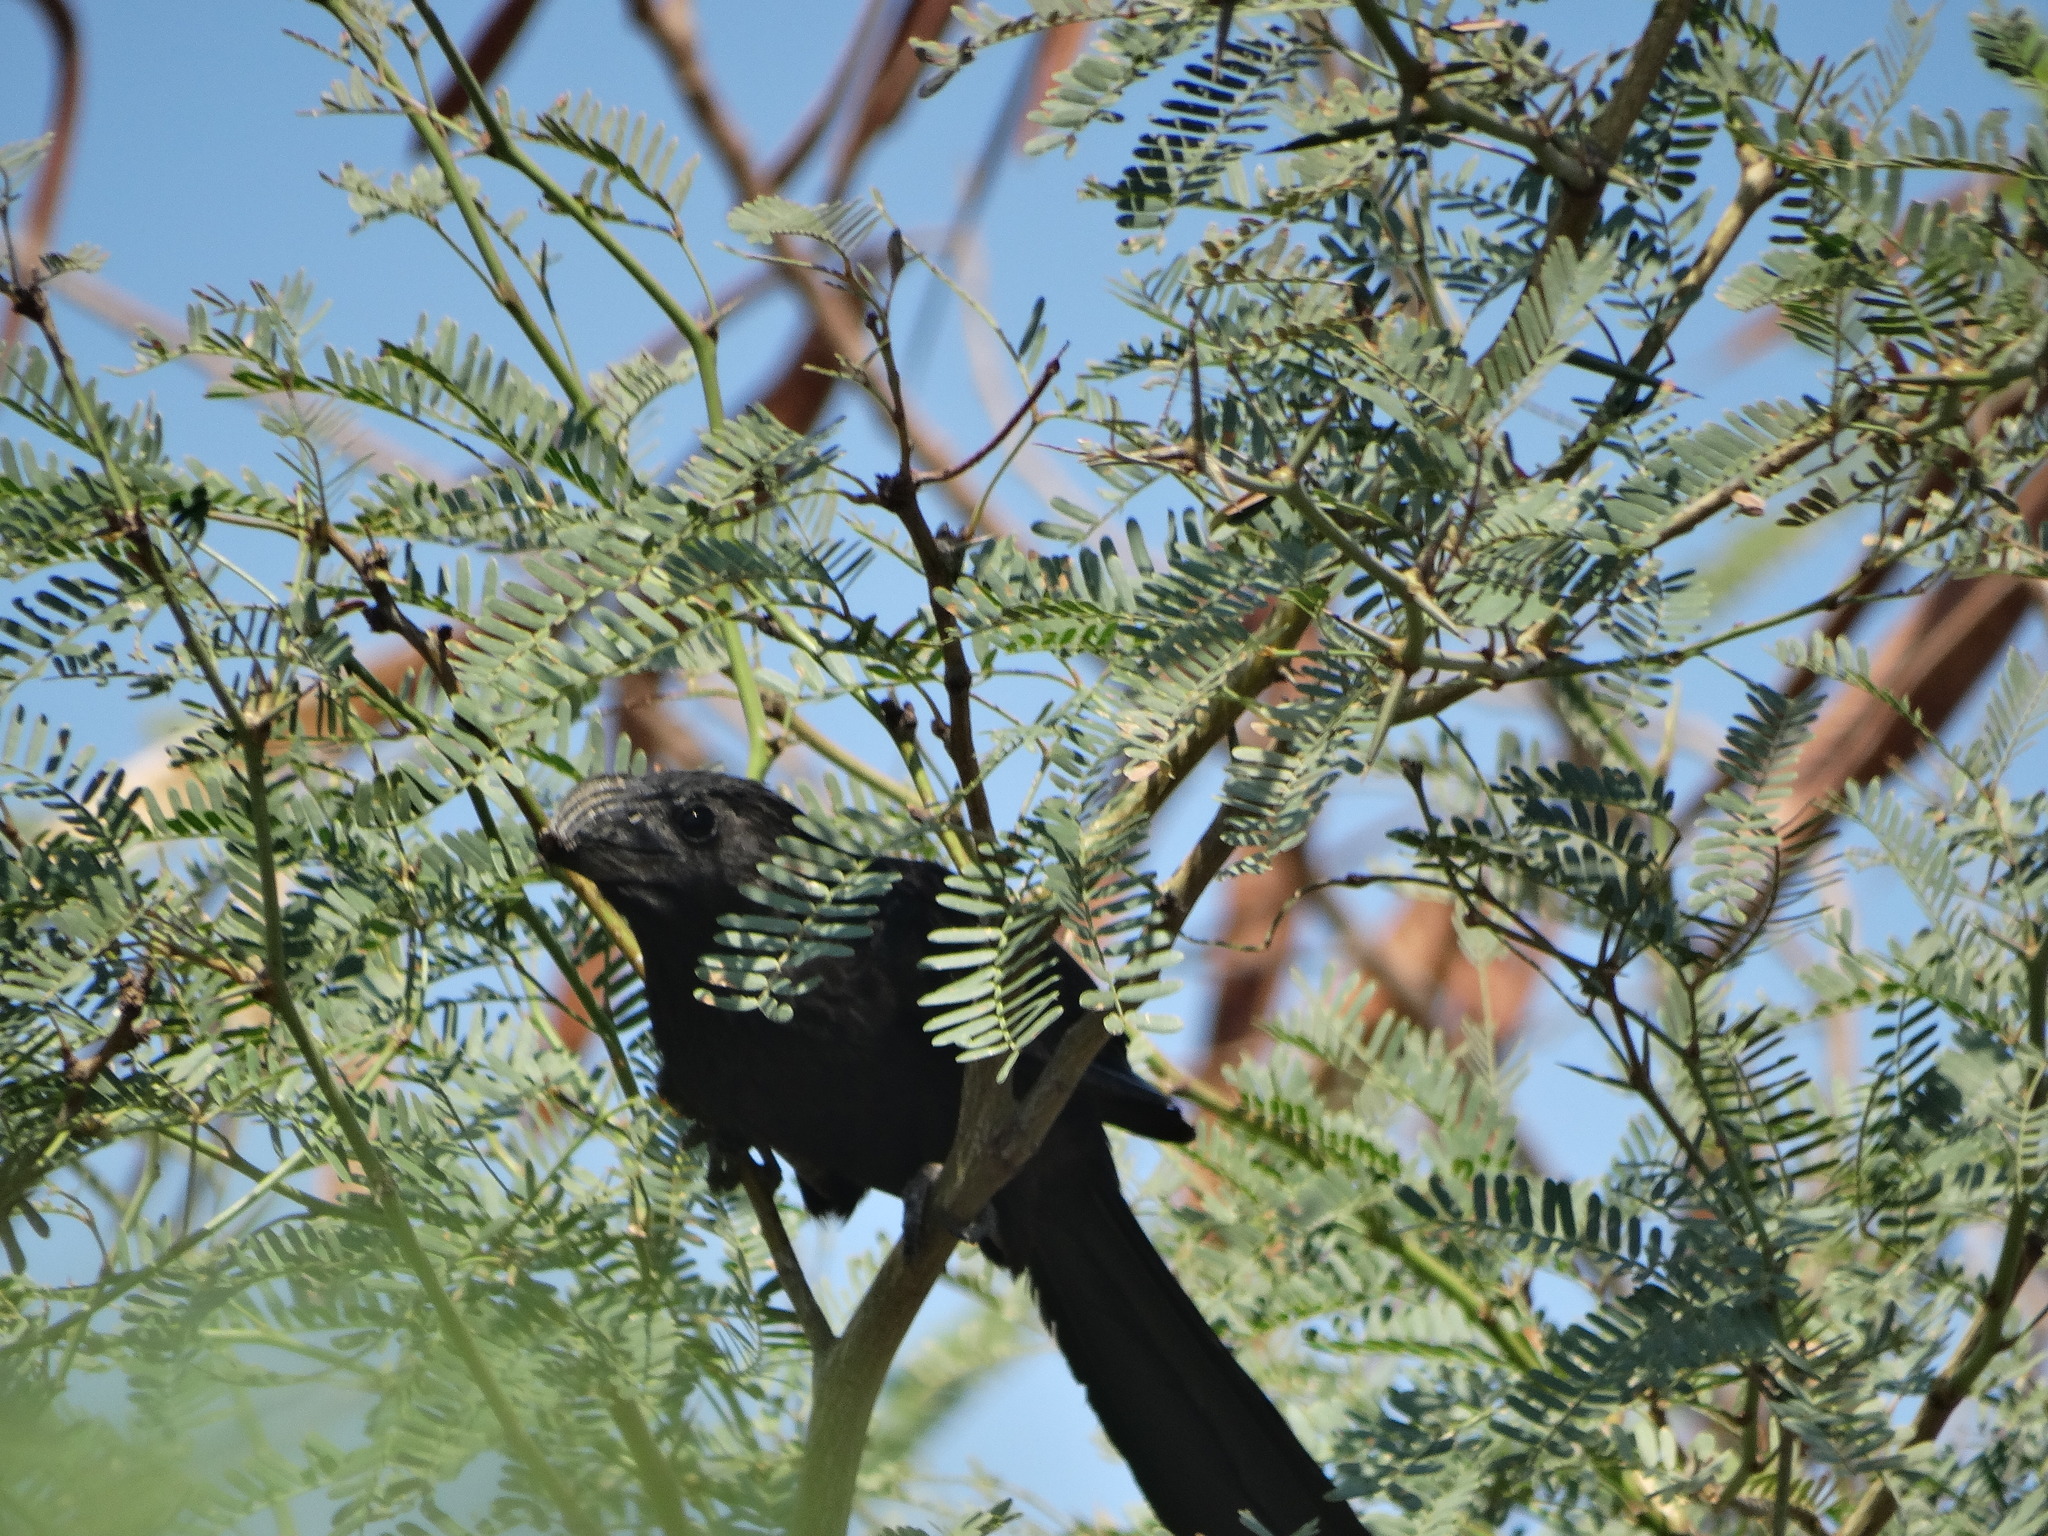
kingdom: Animalia
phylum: Chordata
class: Aves
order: Cuculiformes
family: Cuculidae
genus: Crotophaga
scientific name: Crotophaga sulcirostris
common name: Groove-billed ani
